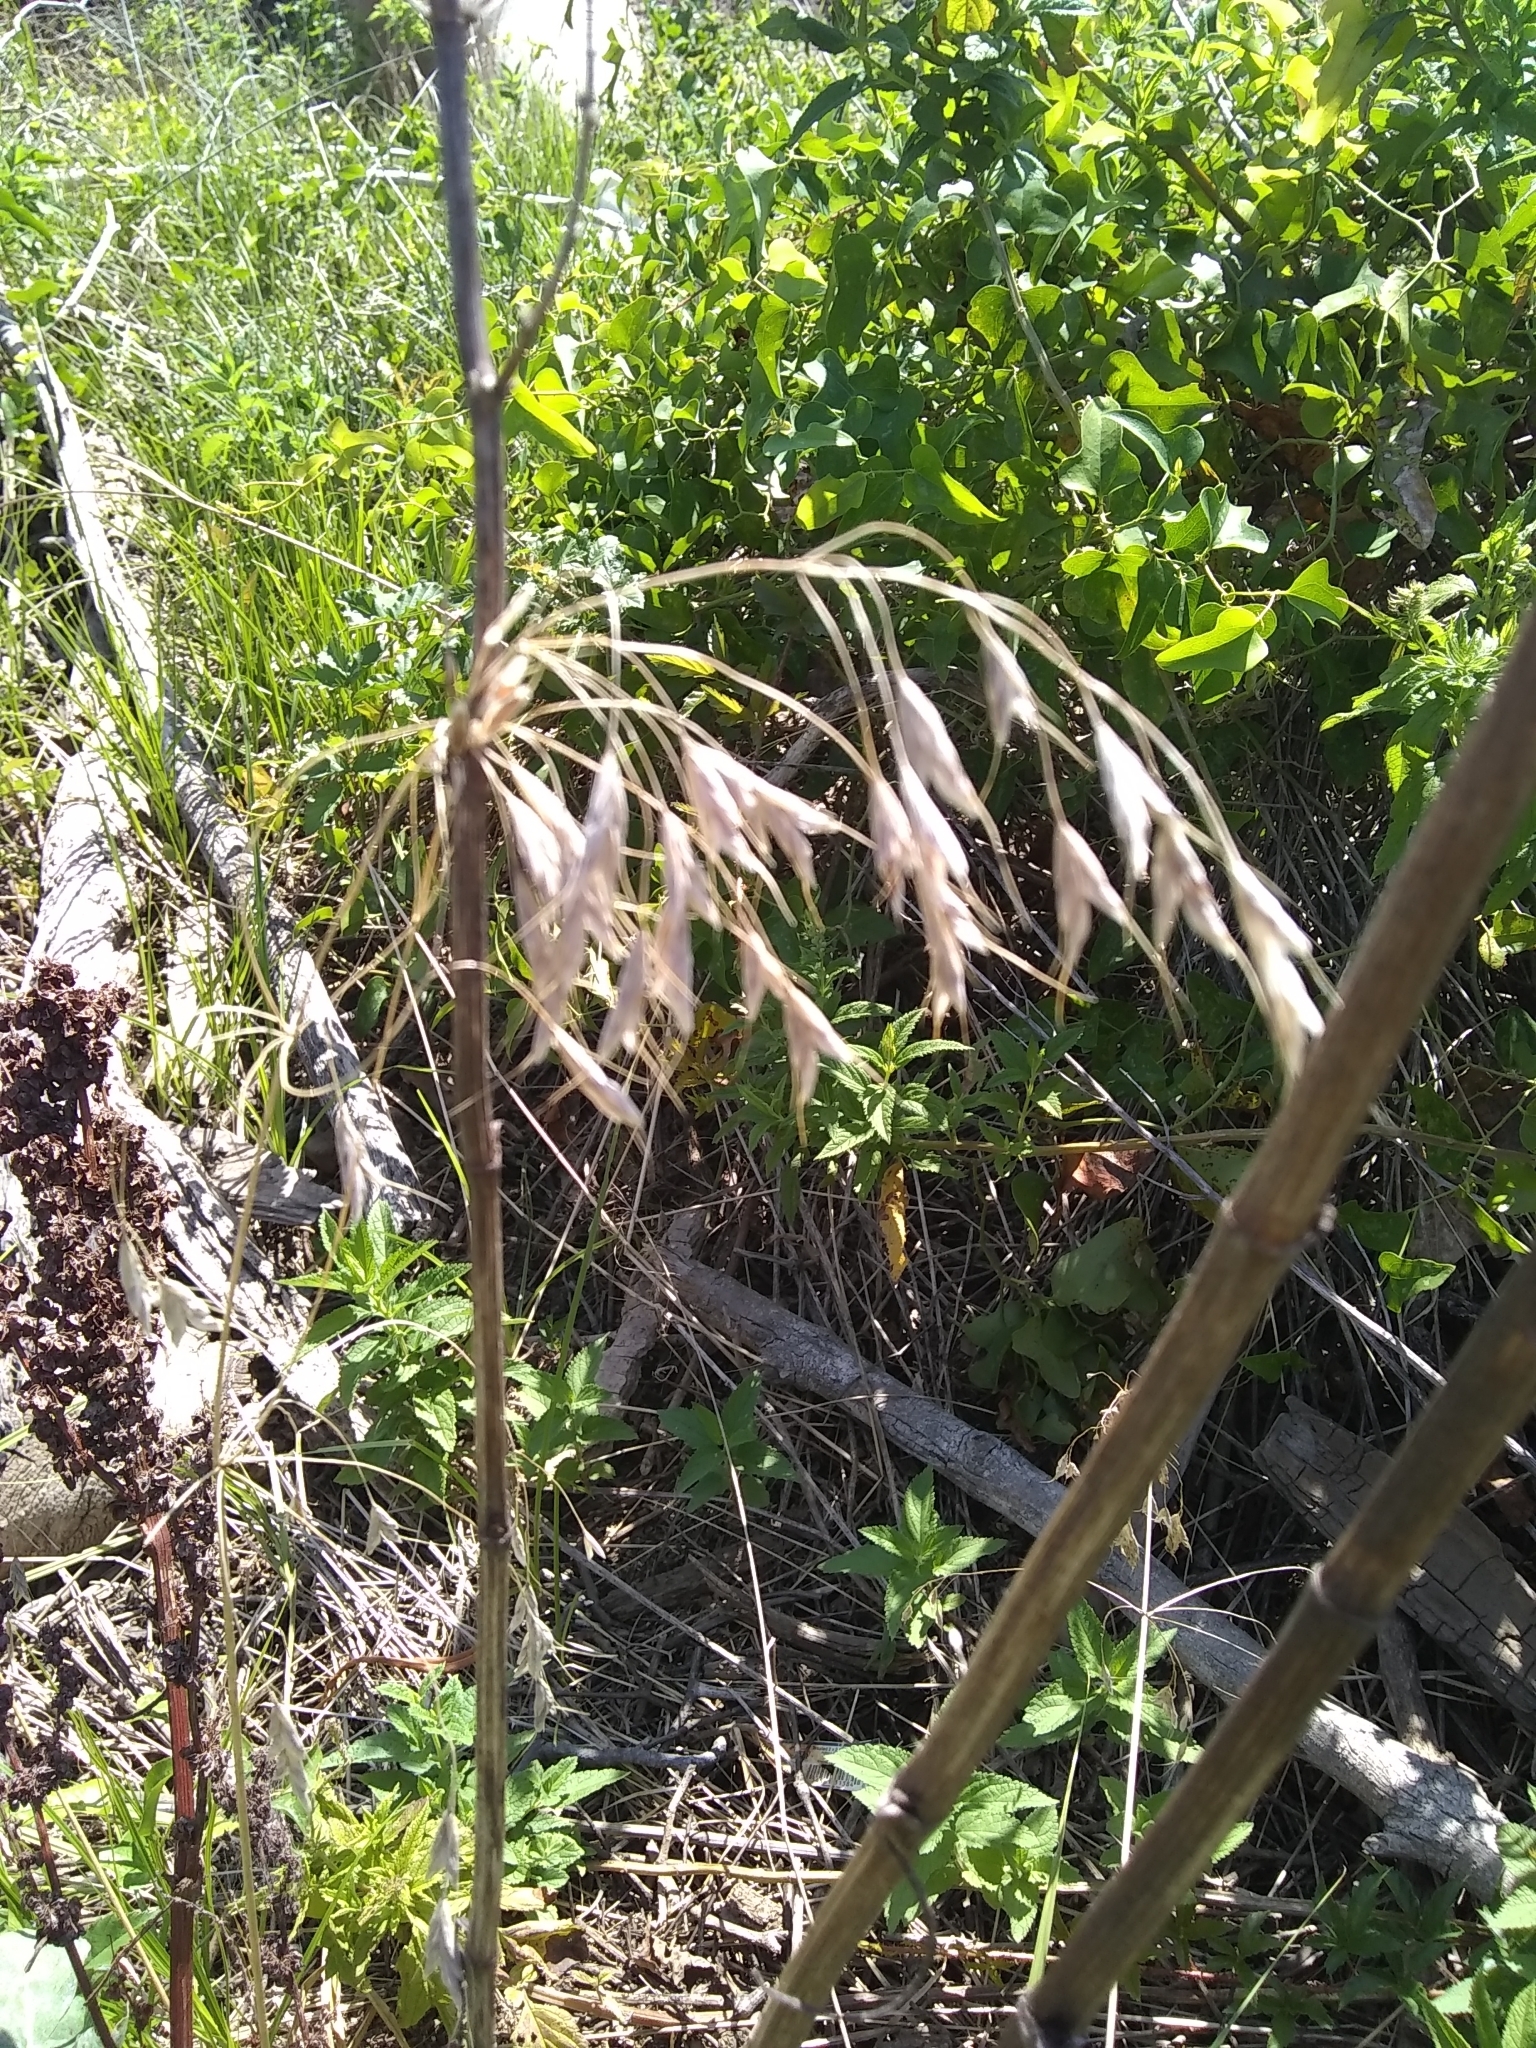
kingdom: Plantae
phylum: Tracheophyta
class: Liliopsida
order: Poales
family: Poaceae
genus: Bromus
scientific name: Bromus japonicus
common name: Japanese brome
